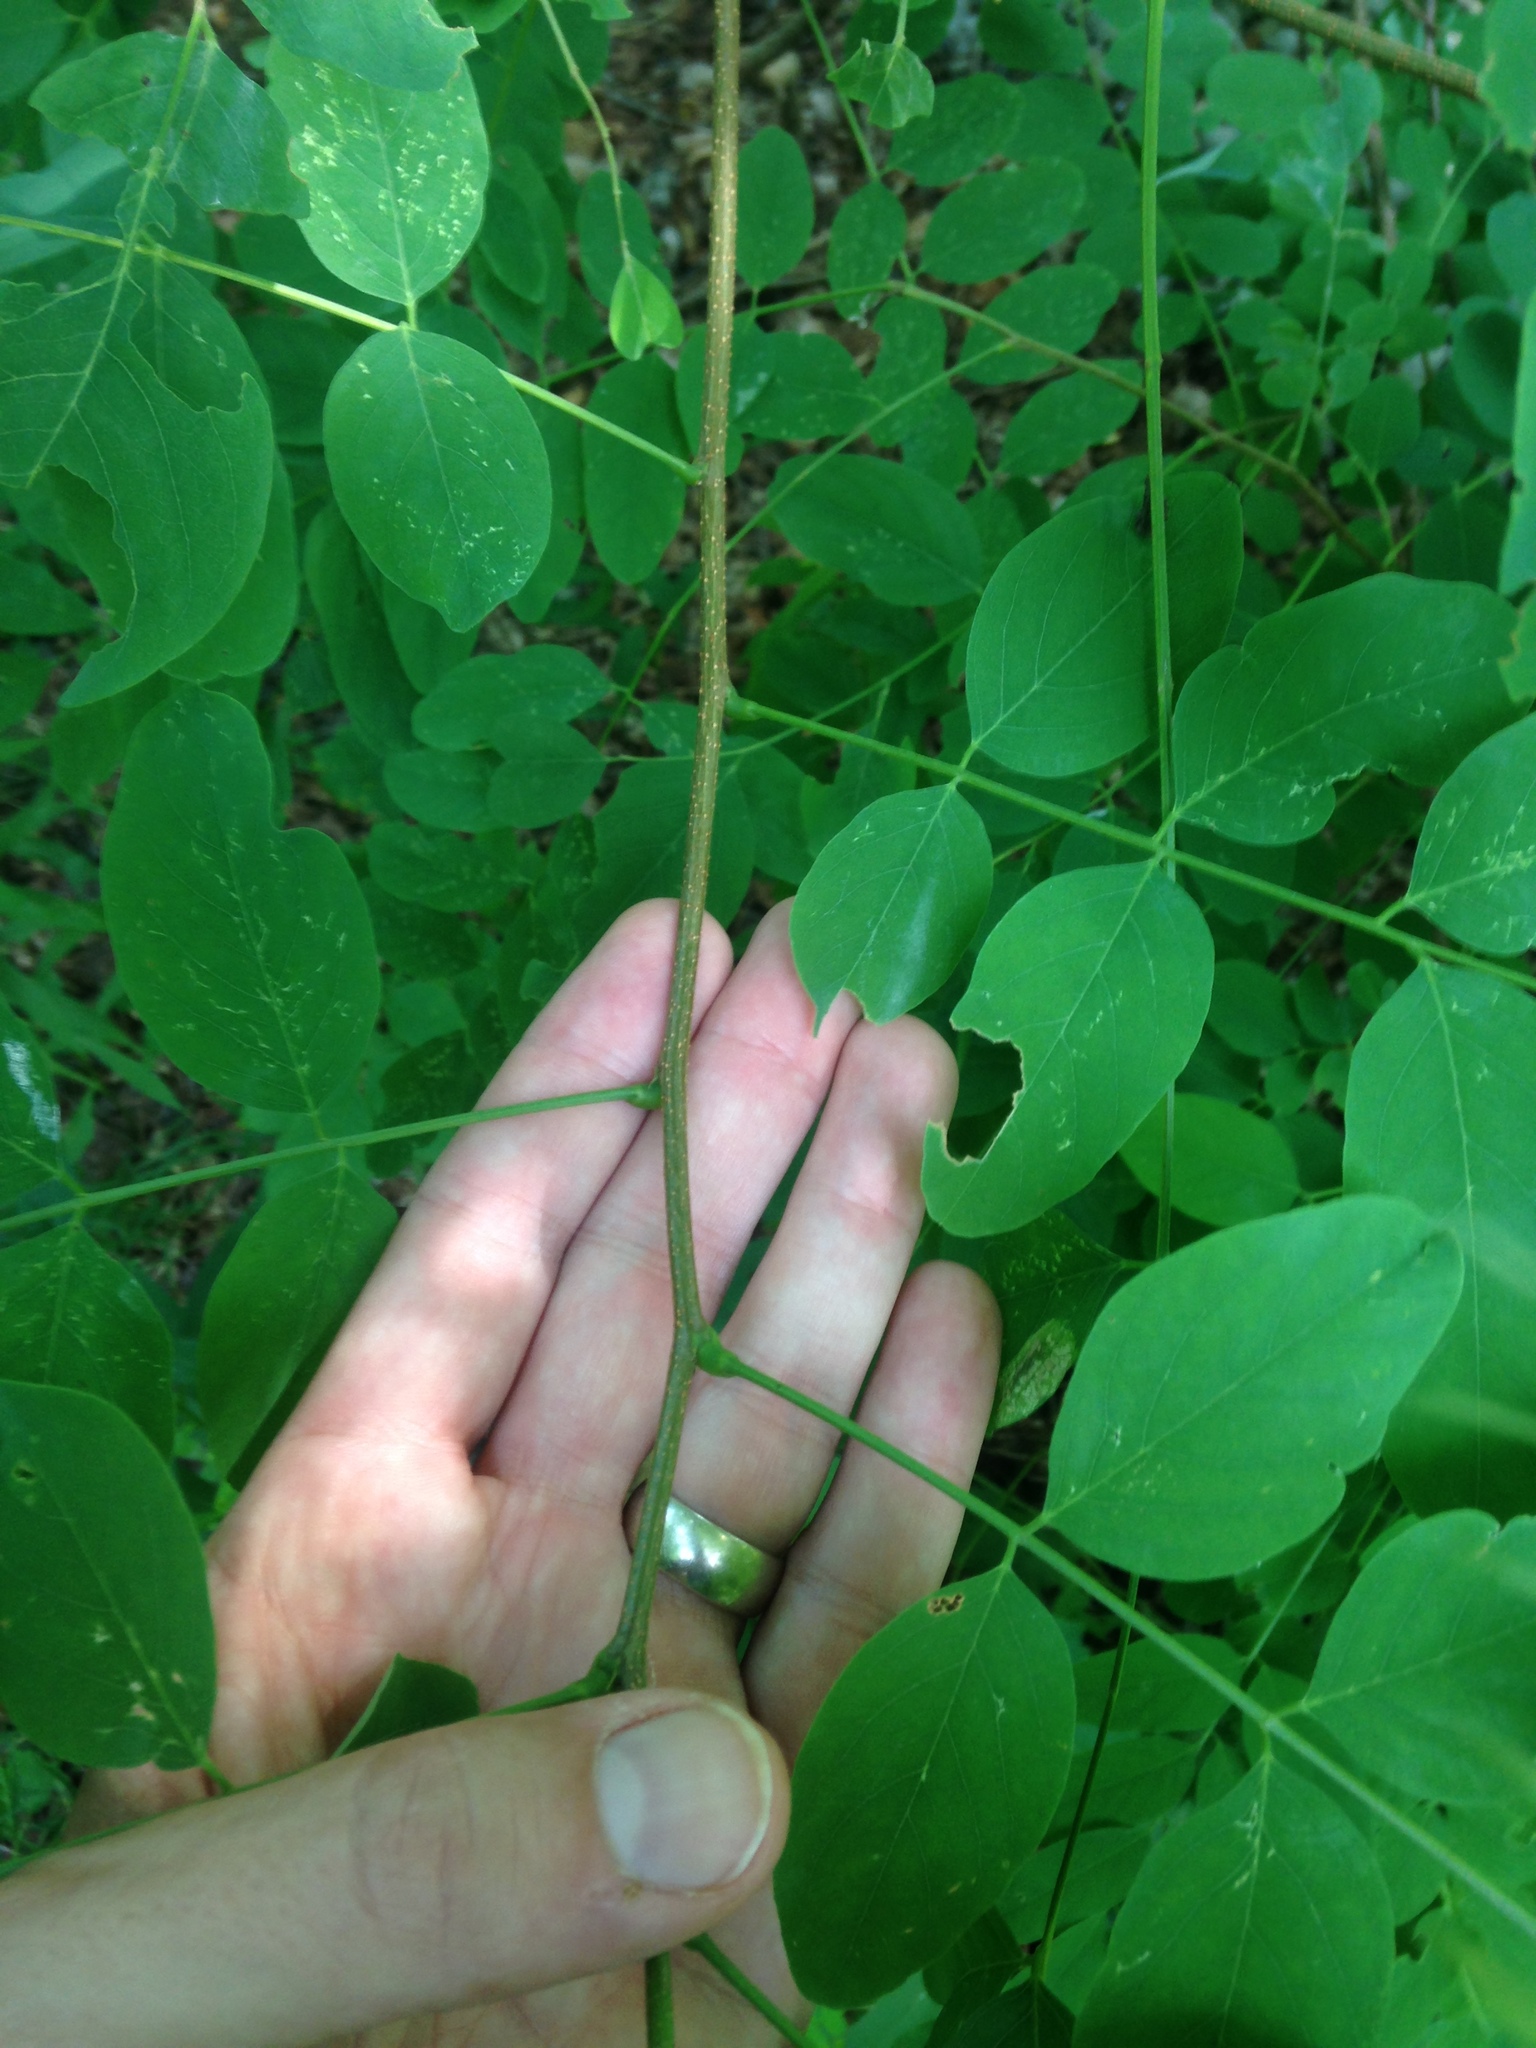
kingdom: Plantae
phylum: Tracheophyta
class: Magnoliopsida
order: Fabales
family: Fabaceae
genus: Robinia
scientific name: Robinia pseudoacacia
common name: Black locust
